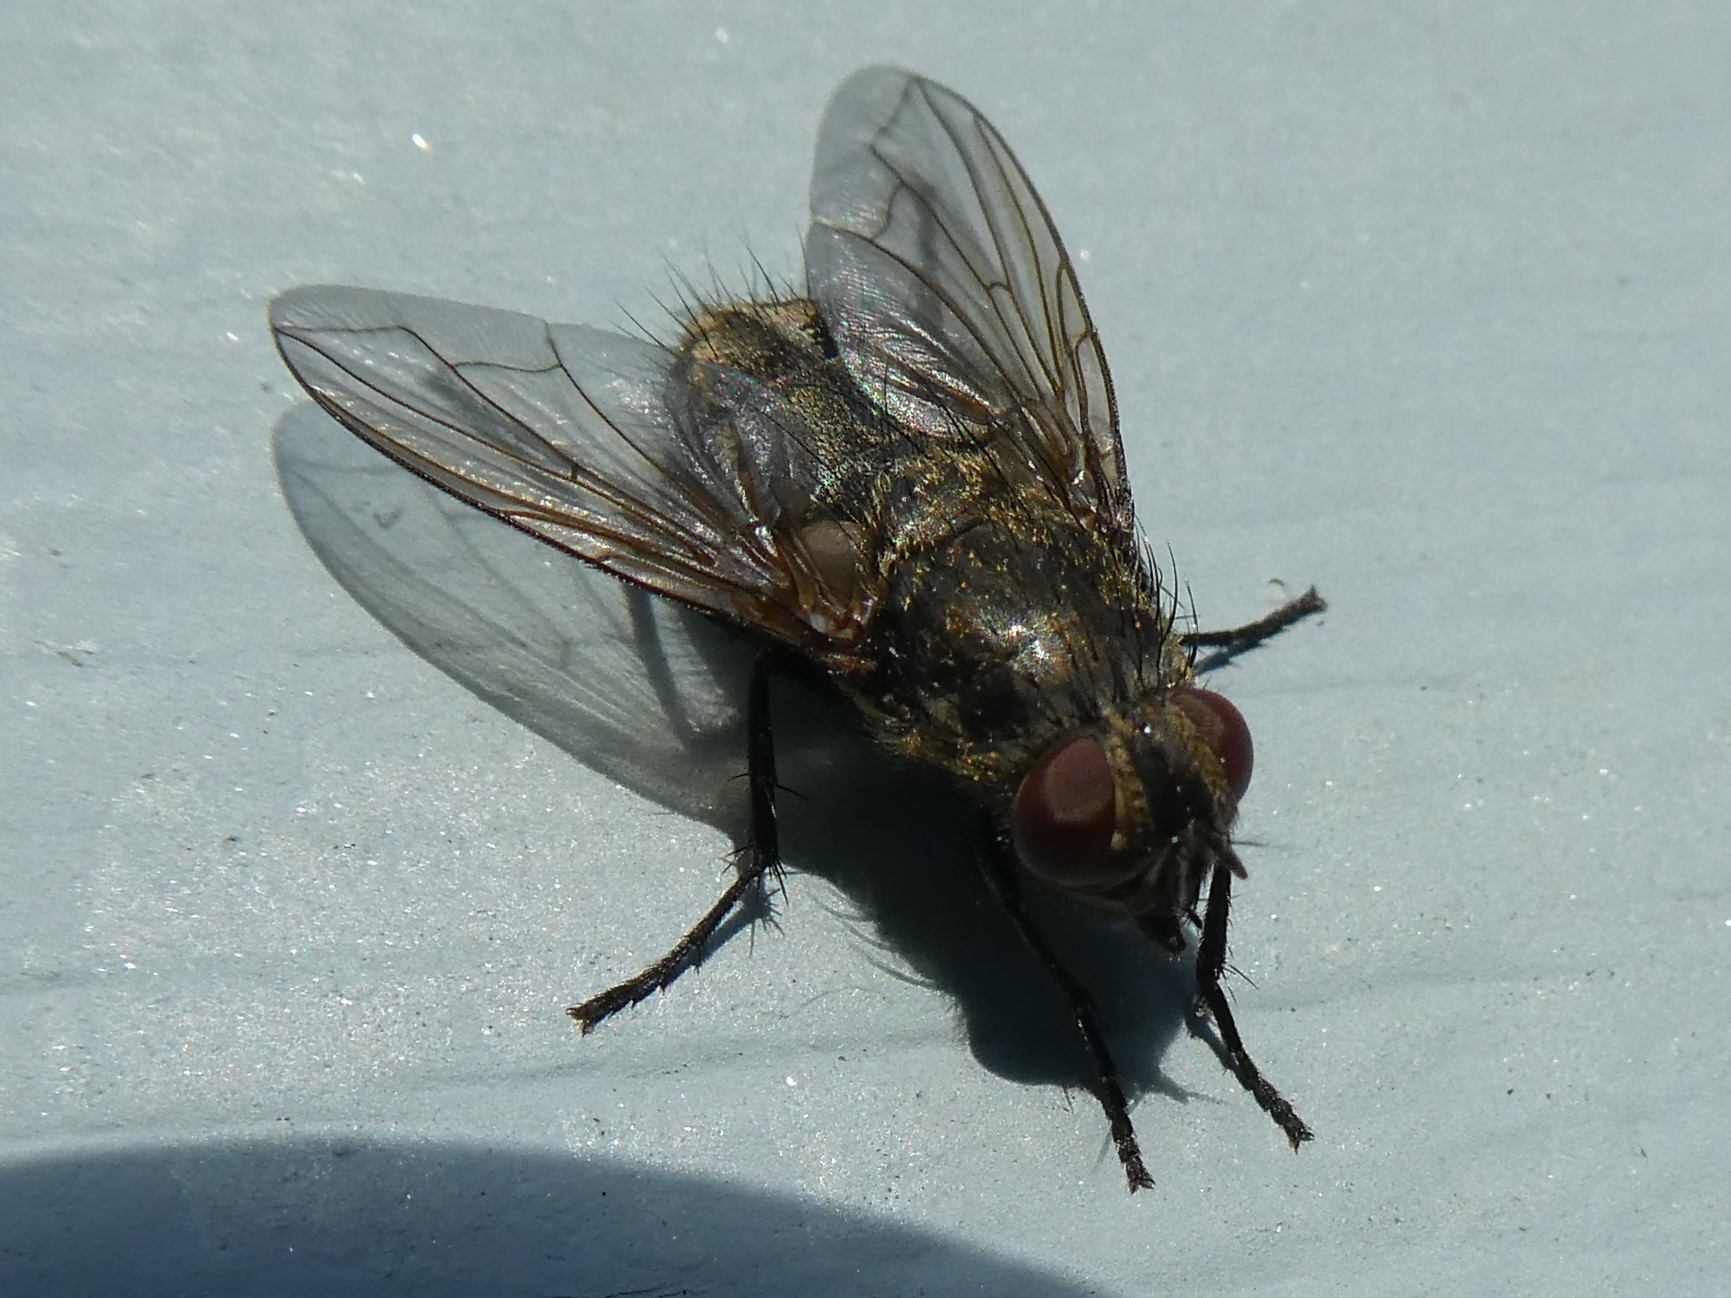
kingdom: Animalia
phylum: Arthropoda
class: Insecta
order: Diptera
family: Polleniidae
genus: Pollenia
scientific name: Pollenia
